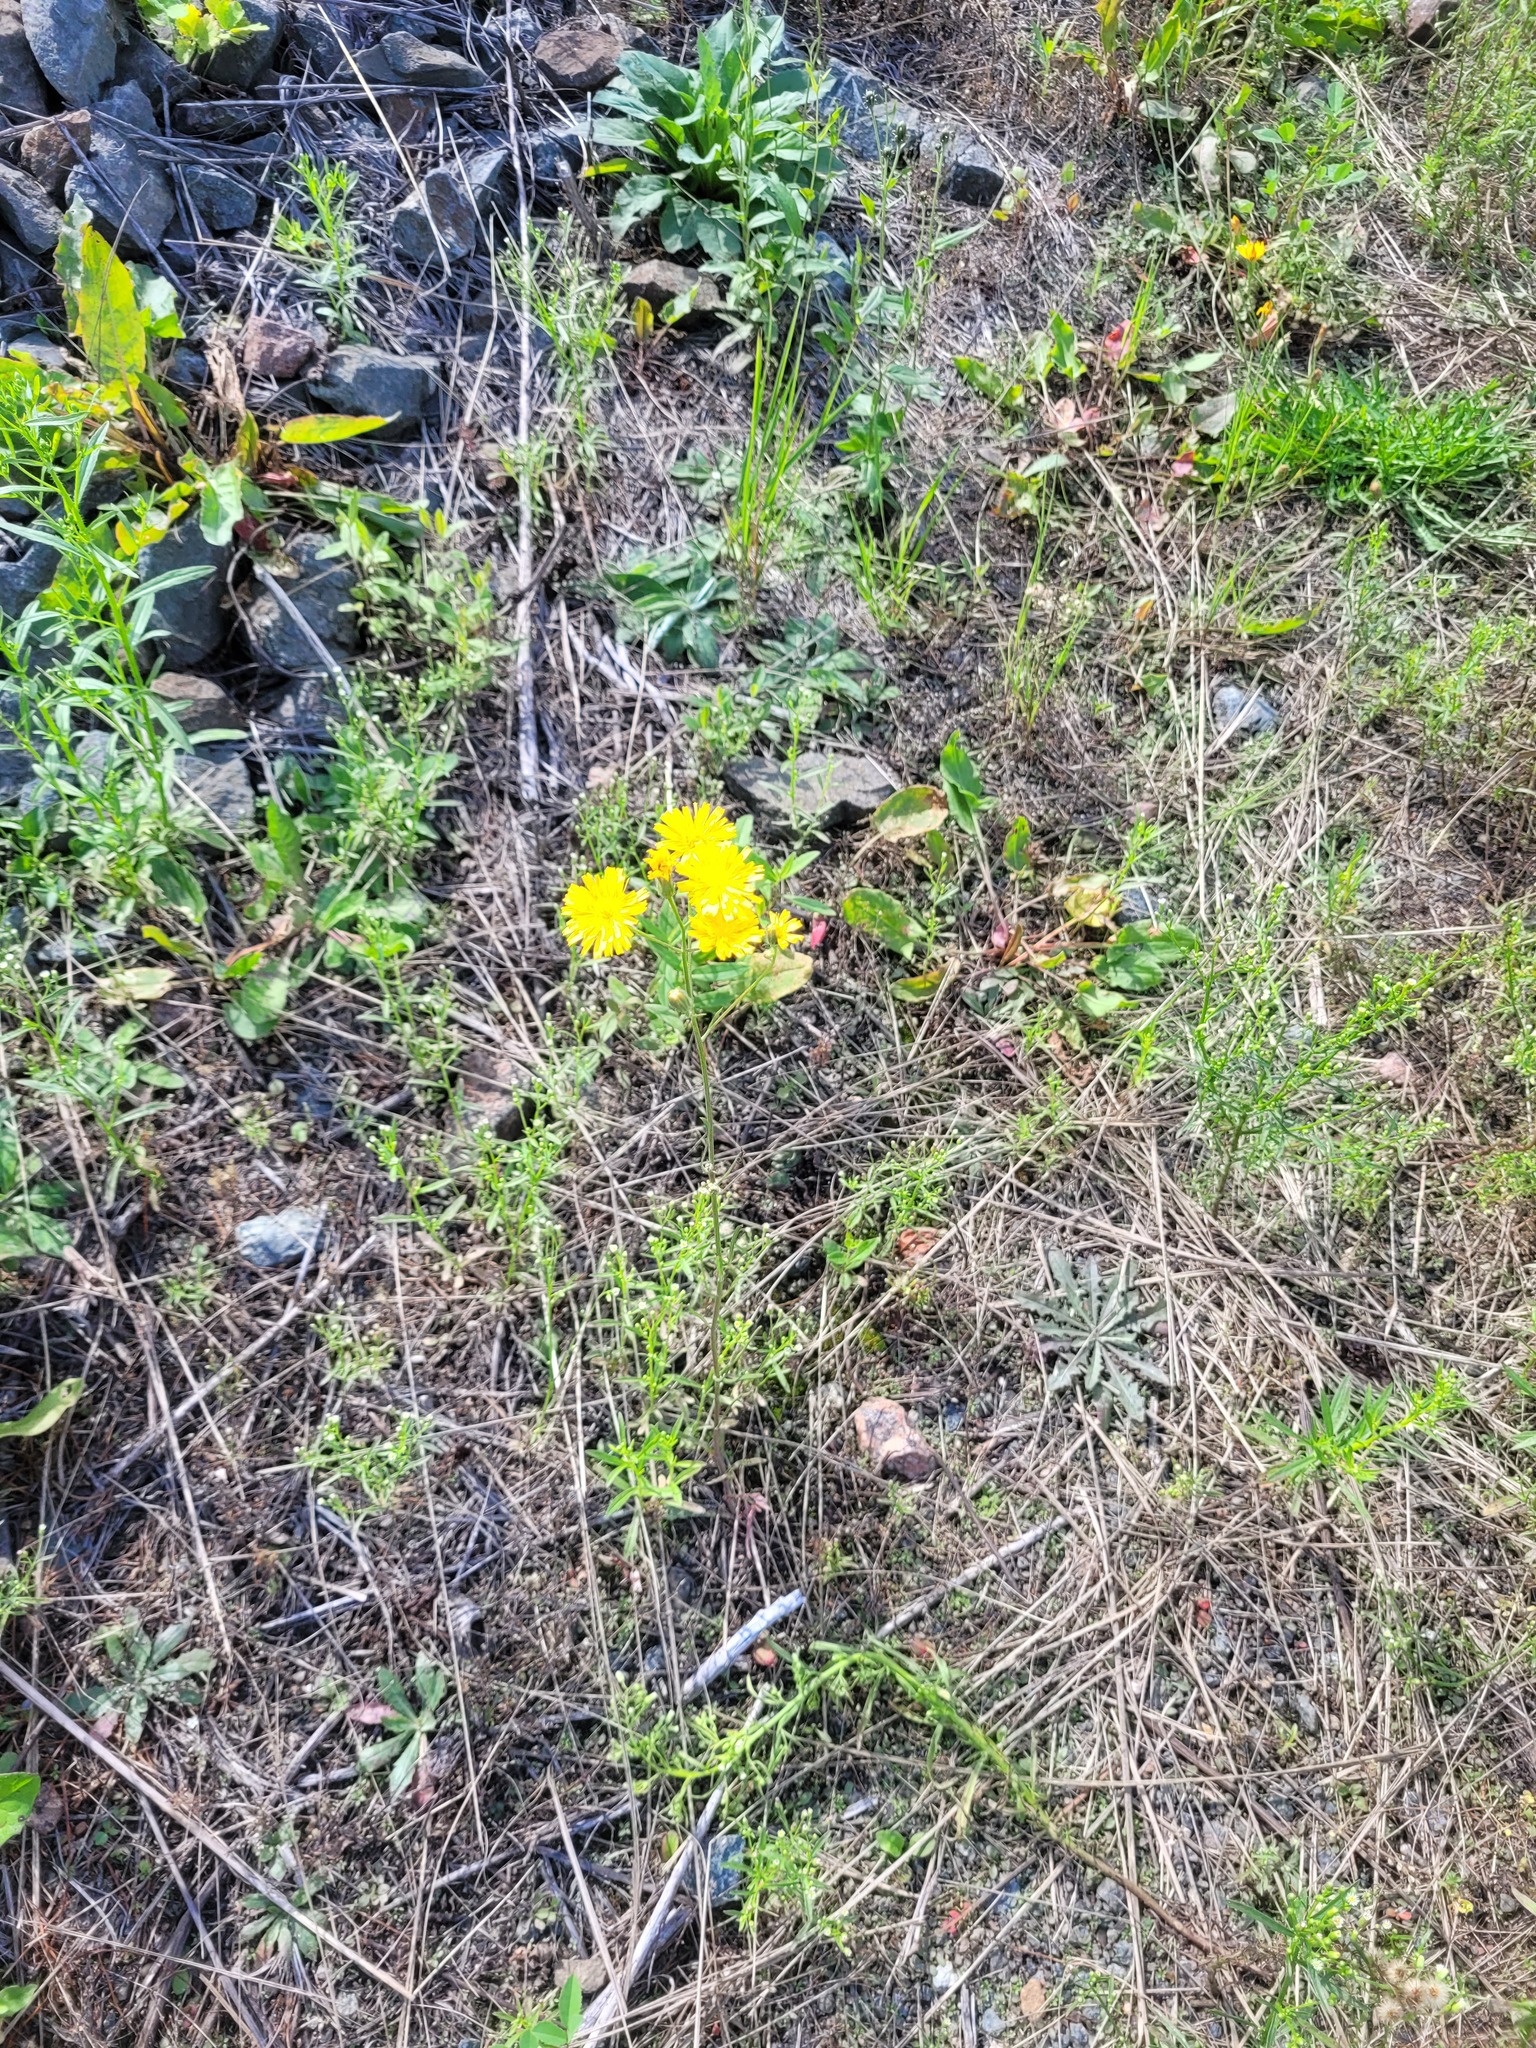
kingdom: Plantae
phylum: Tracheophyta
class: Magnoliopsida
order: Asterales
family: Asteraceae
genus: Crepis
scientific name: Crepis tectorum
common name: Narrow-leaved hawk's-beard
